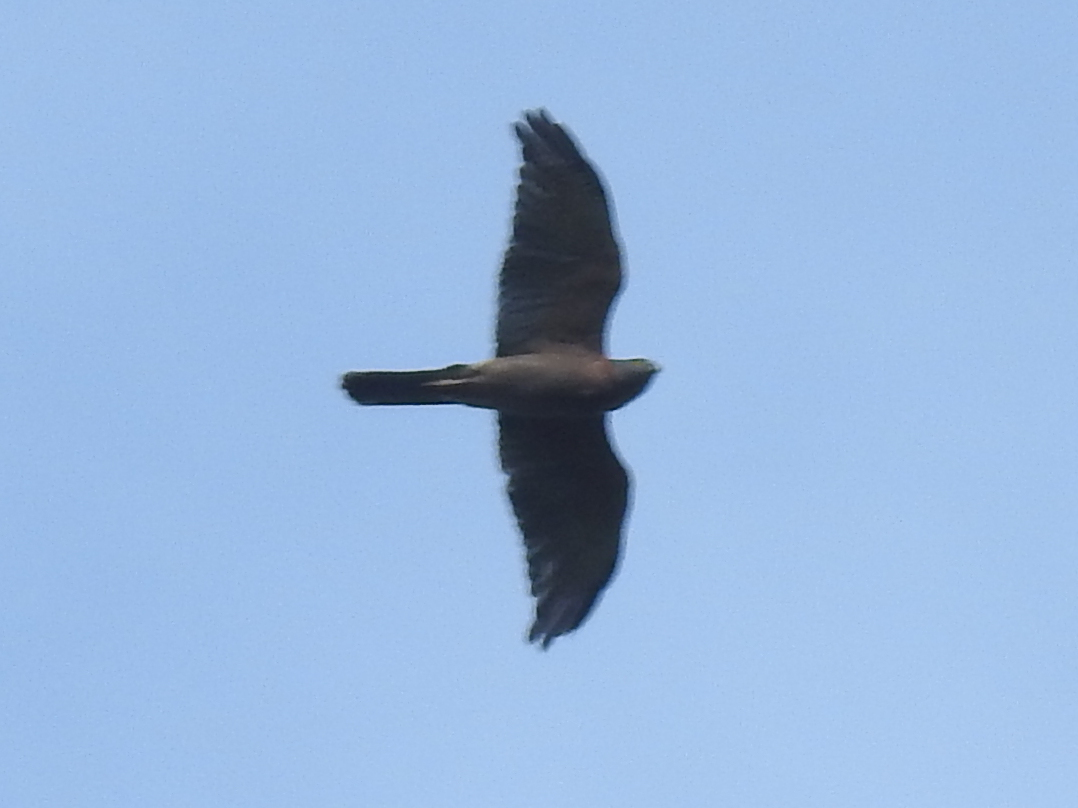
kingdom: Animalia
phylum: Chordata
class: Aves
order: Accipitriformes
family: Accipitridae
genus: Accipiter
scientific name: Accipiter fasciatus
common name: Brown goshawk
